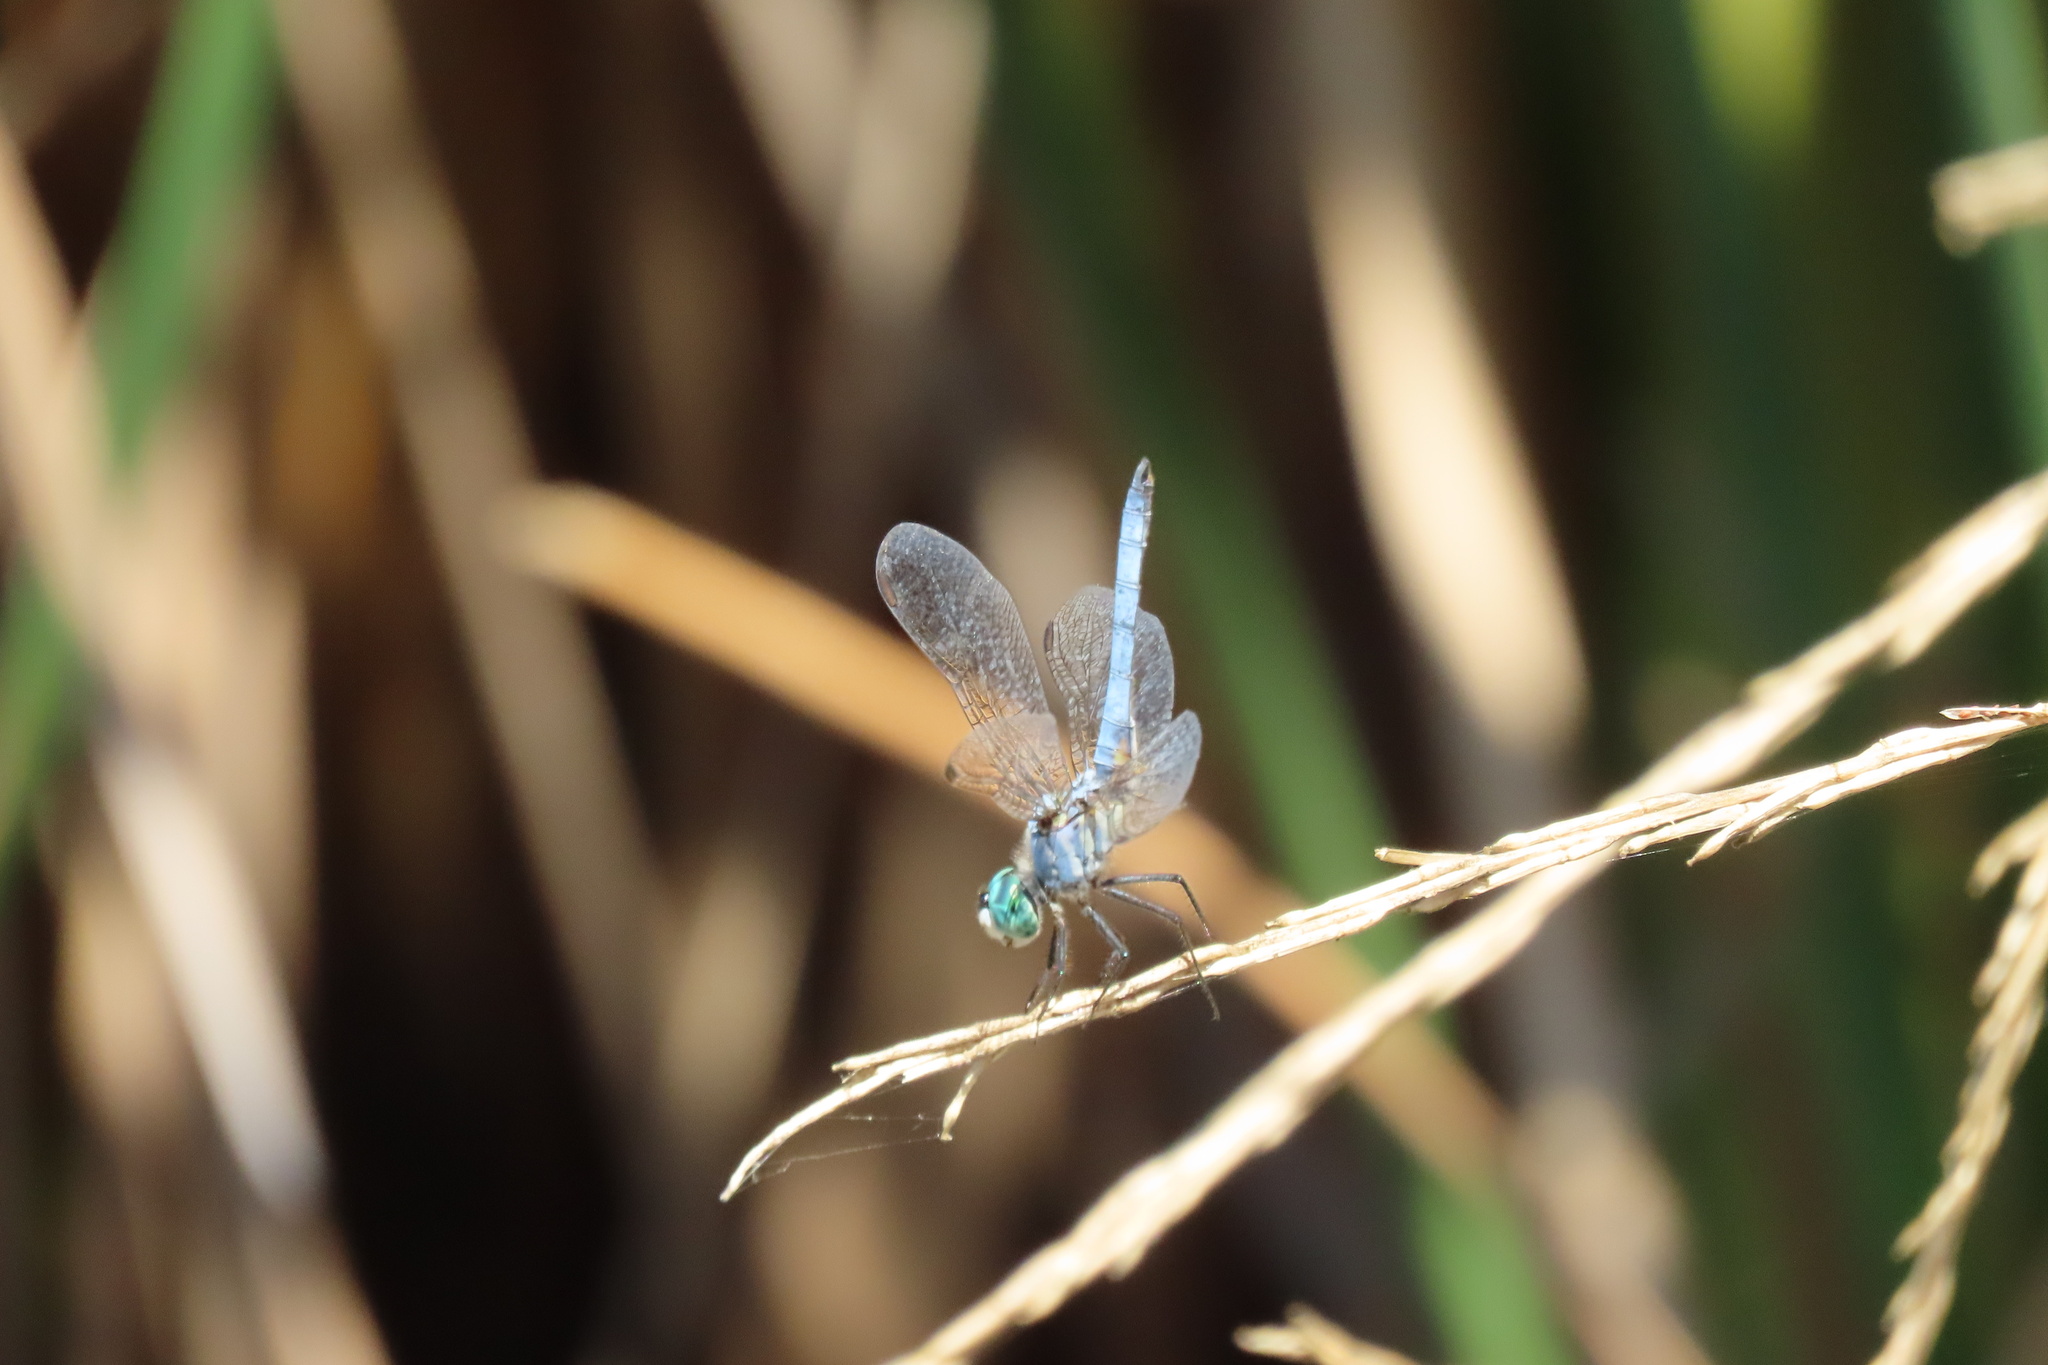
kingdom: Animalia
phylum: Arthropoda
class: Insecta
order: Odonata
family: Libellulidae
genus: Pachydiplax
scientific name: Pachydiplax longipennis
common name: Blue dasher
